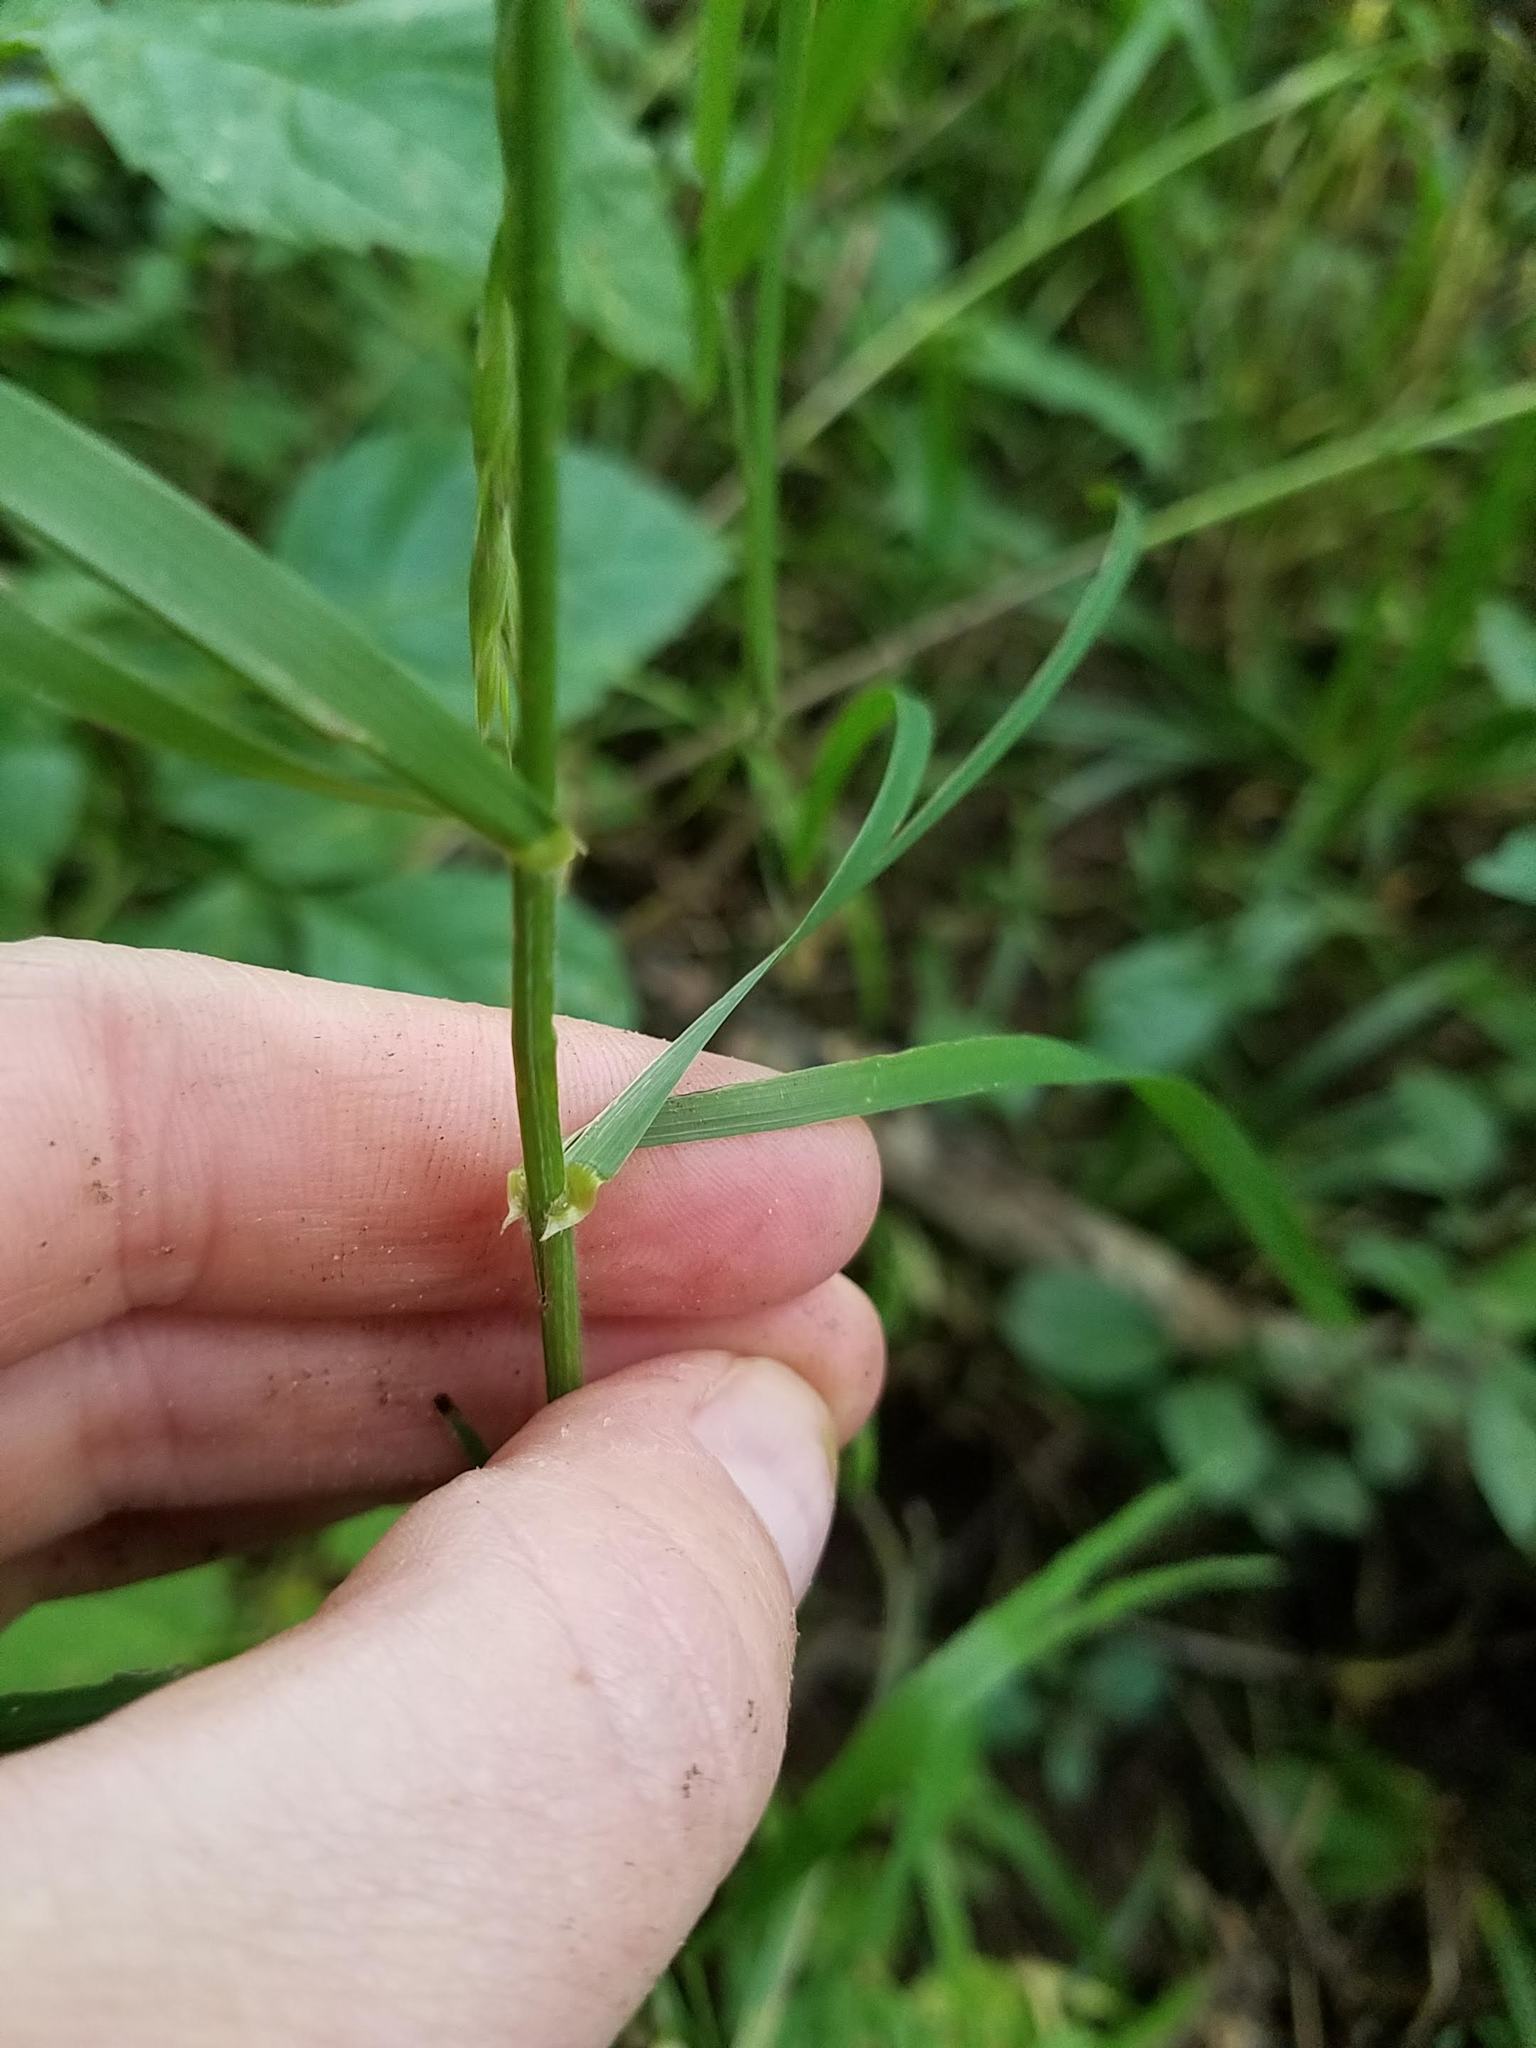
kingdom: Plantae
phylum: Tracheophyta
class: Liliopsida
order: Poales
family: Poaceae
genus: Bromus
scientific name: Bromus latiglumis
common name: Broad-glumed brome
